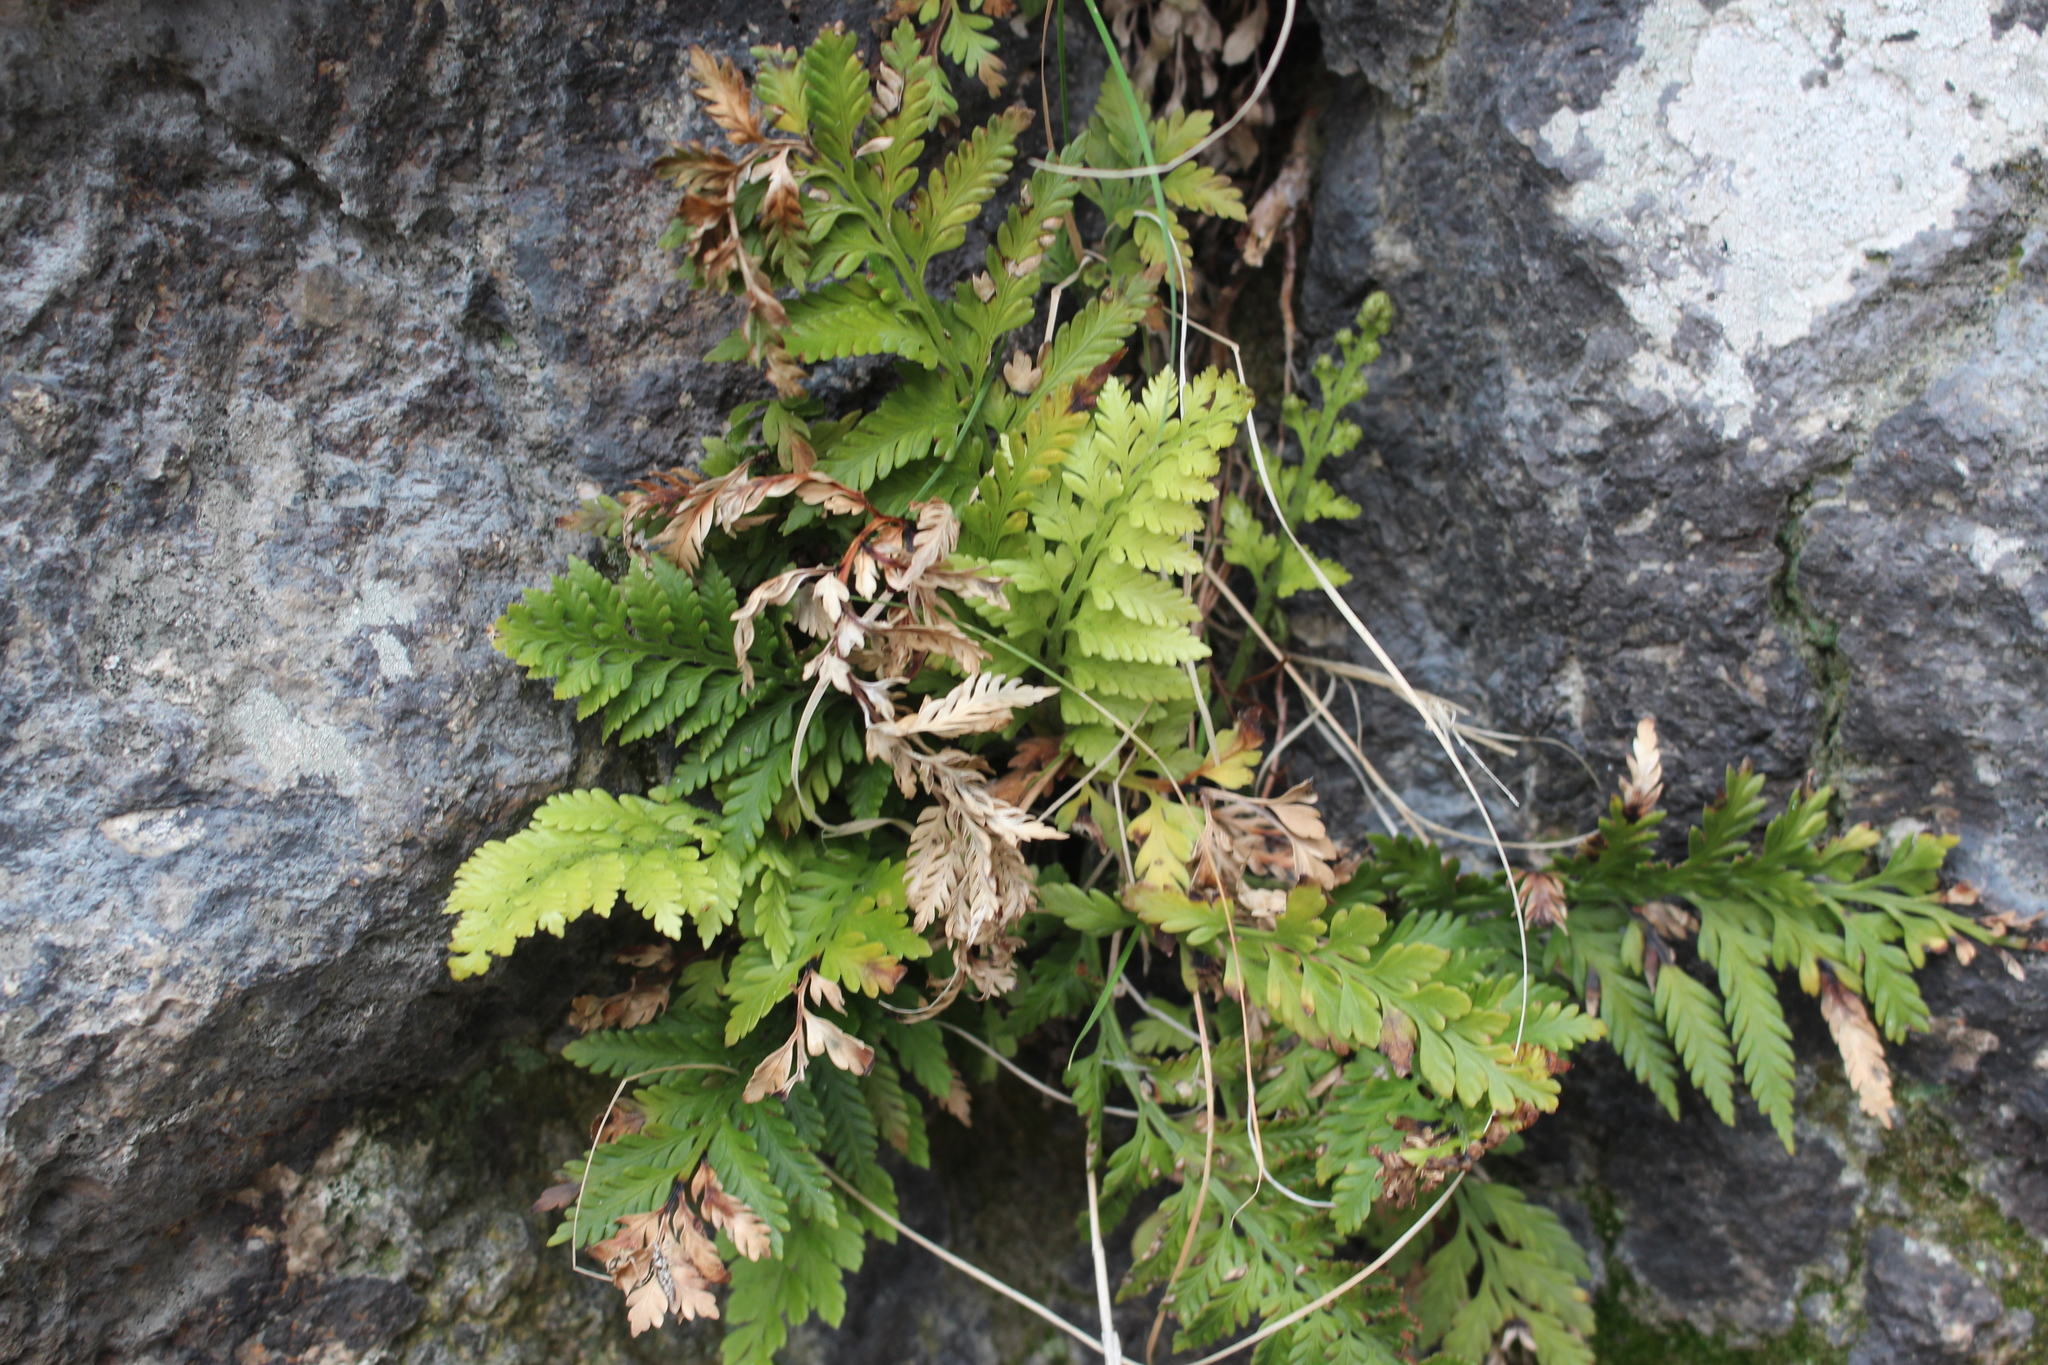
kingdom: Plantae
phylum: Tracheophyta
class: Polypodiopsida
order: Polypodiales
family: Aspleniaceae
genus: Asplenium
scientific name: Asplenium appendiculatum
